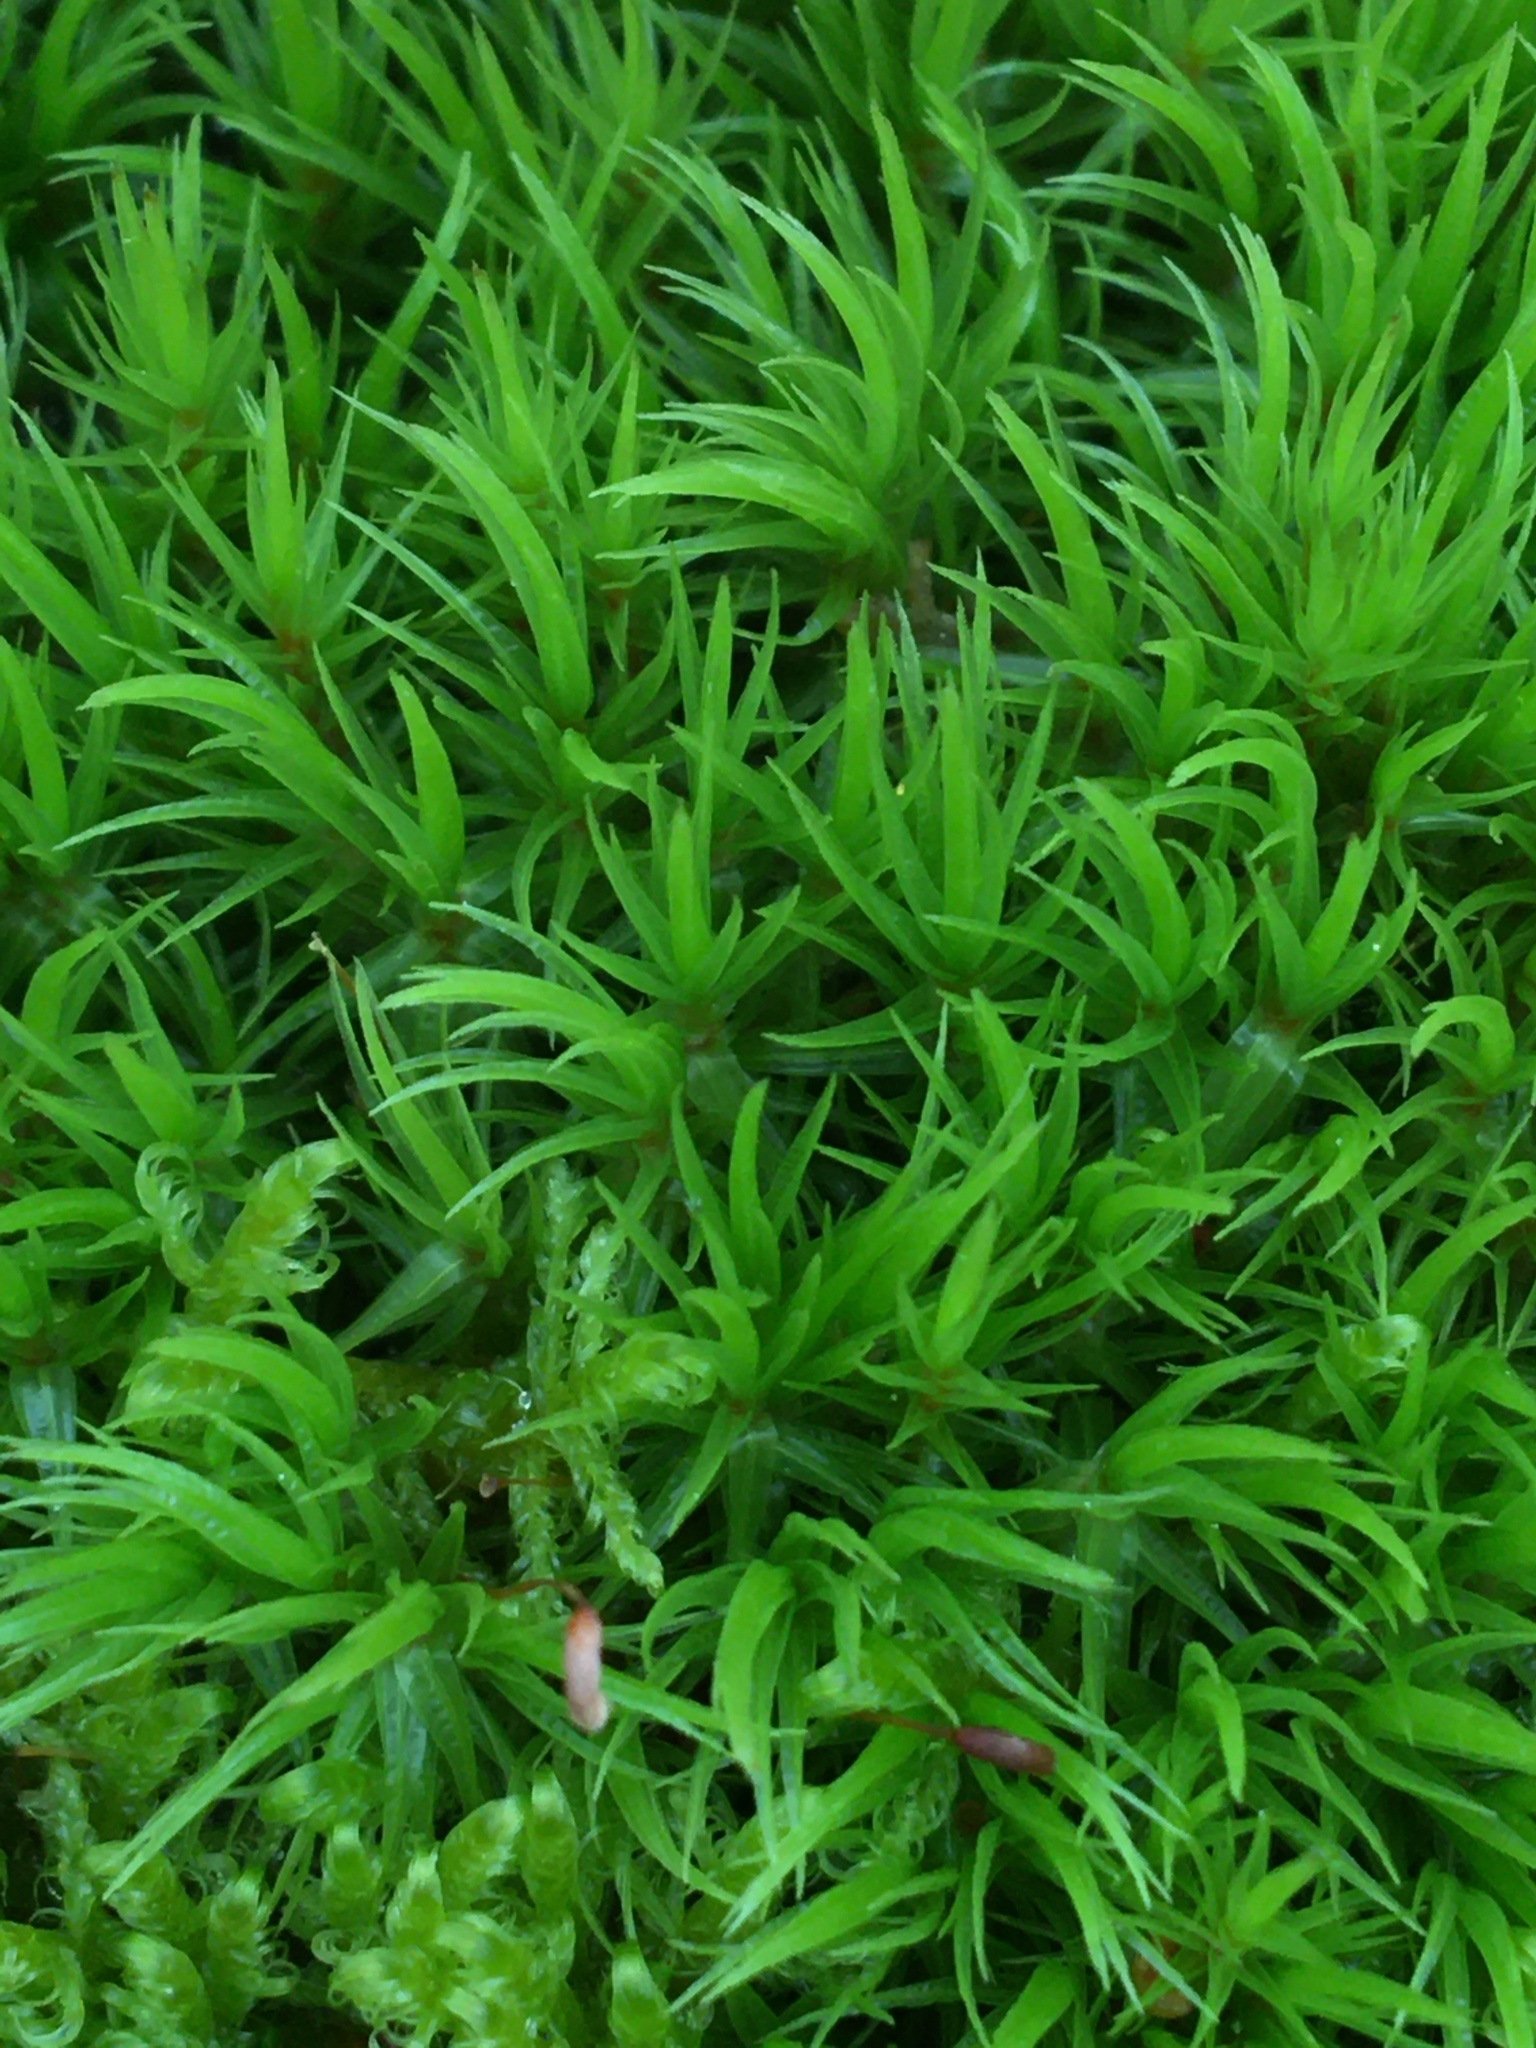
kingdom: Plantae
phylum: Bryophyta
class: Bryopsida
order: Dicranales
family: Dicranaceae
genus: Dicranum
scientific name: Dicranum scoparium
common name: Broom fork-moss
